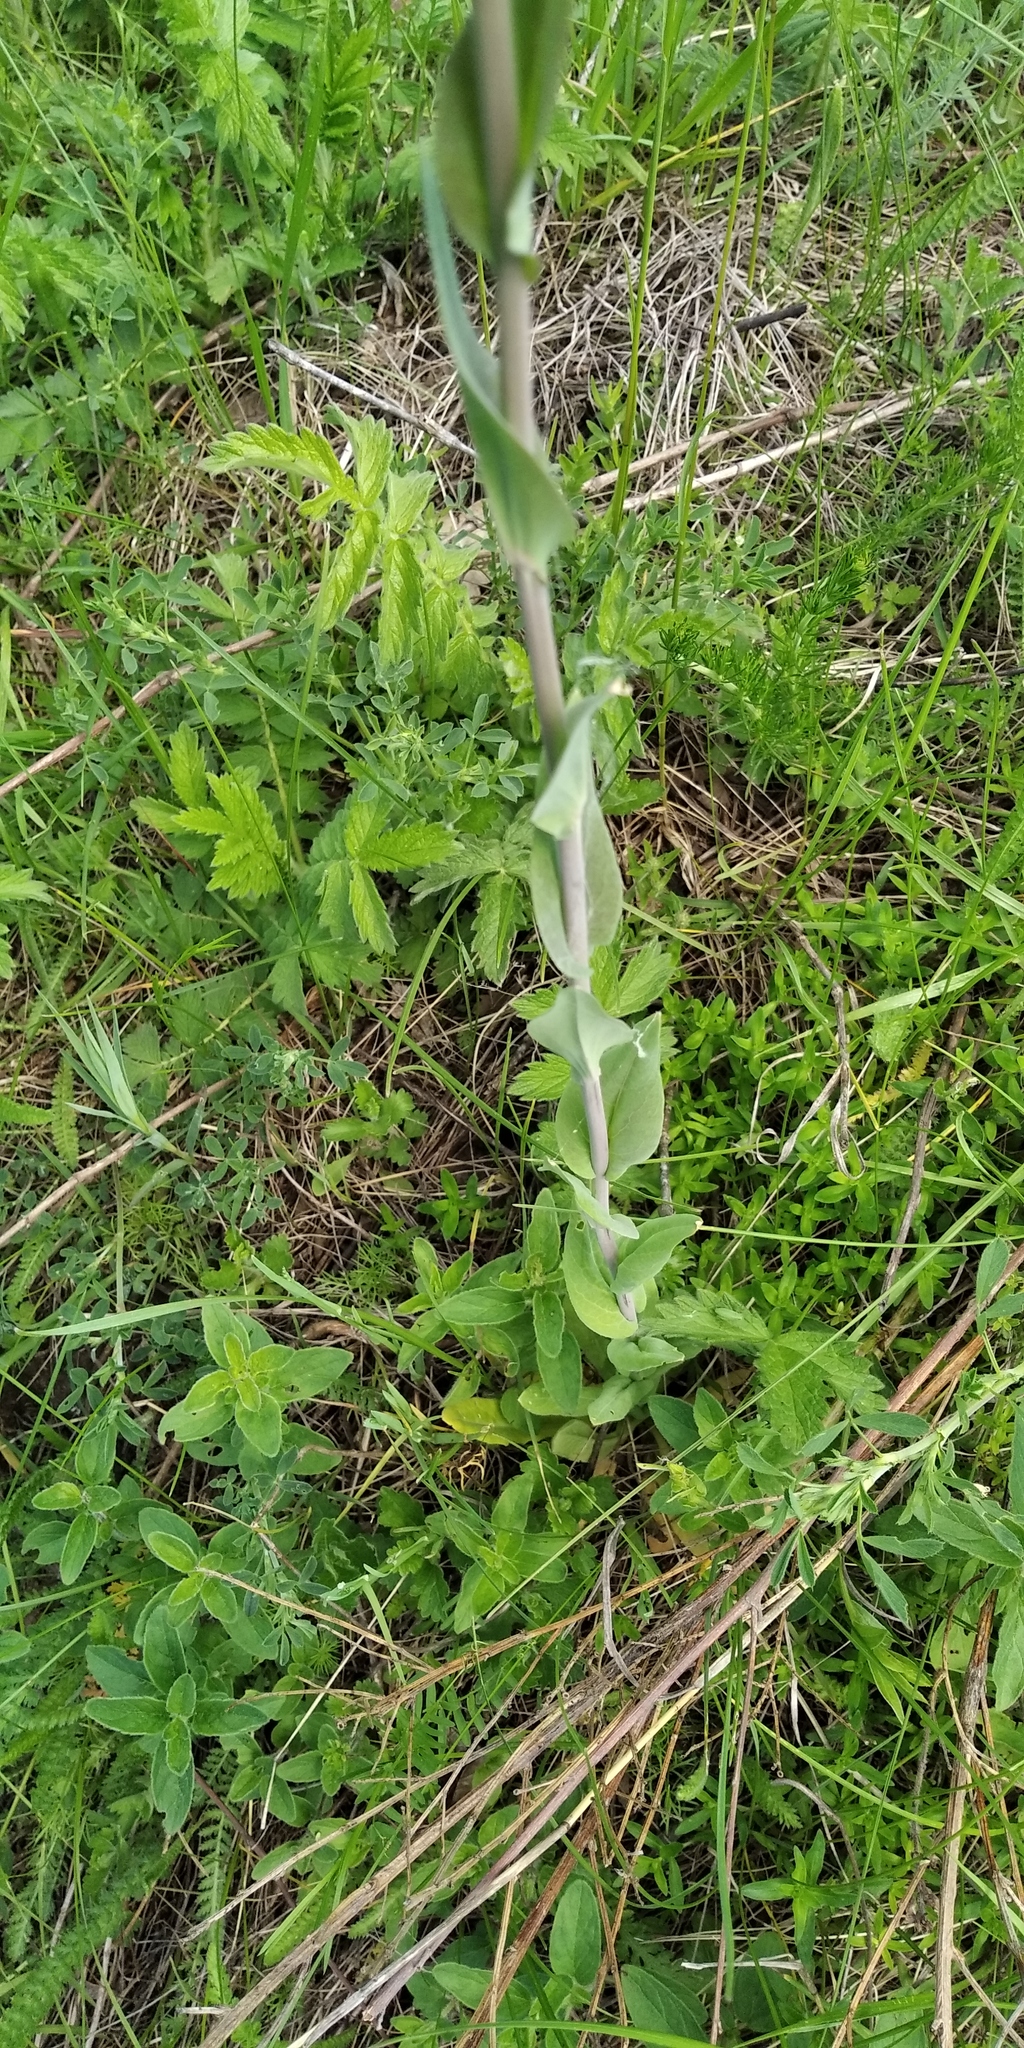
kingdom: Plantae
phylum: Tracheophyta
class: Magnoliopsida
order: Brassicales
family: Brassicaceae
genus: Turritis
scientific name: Turritis glabra
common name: Tower rockcress
